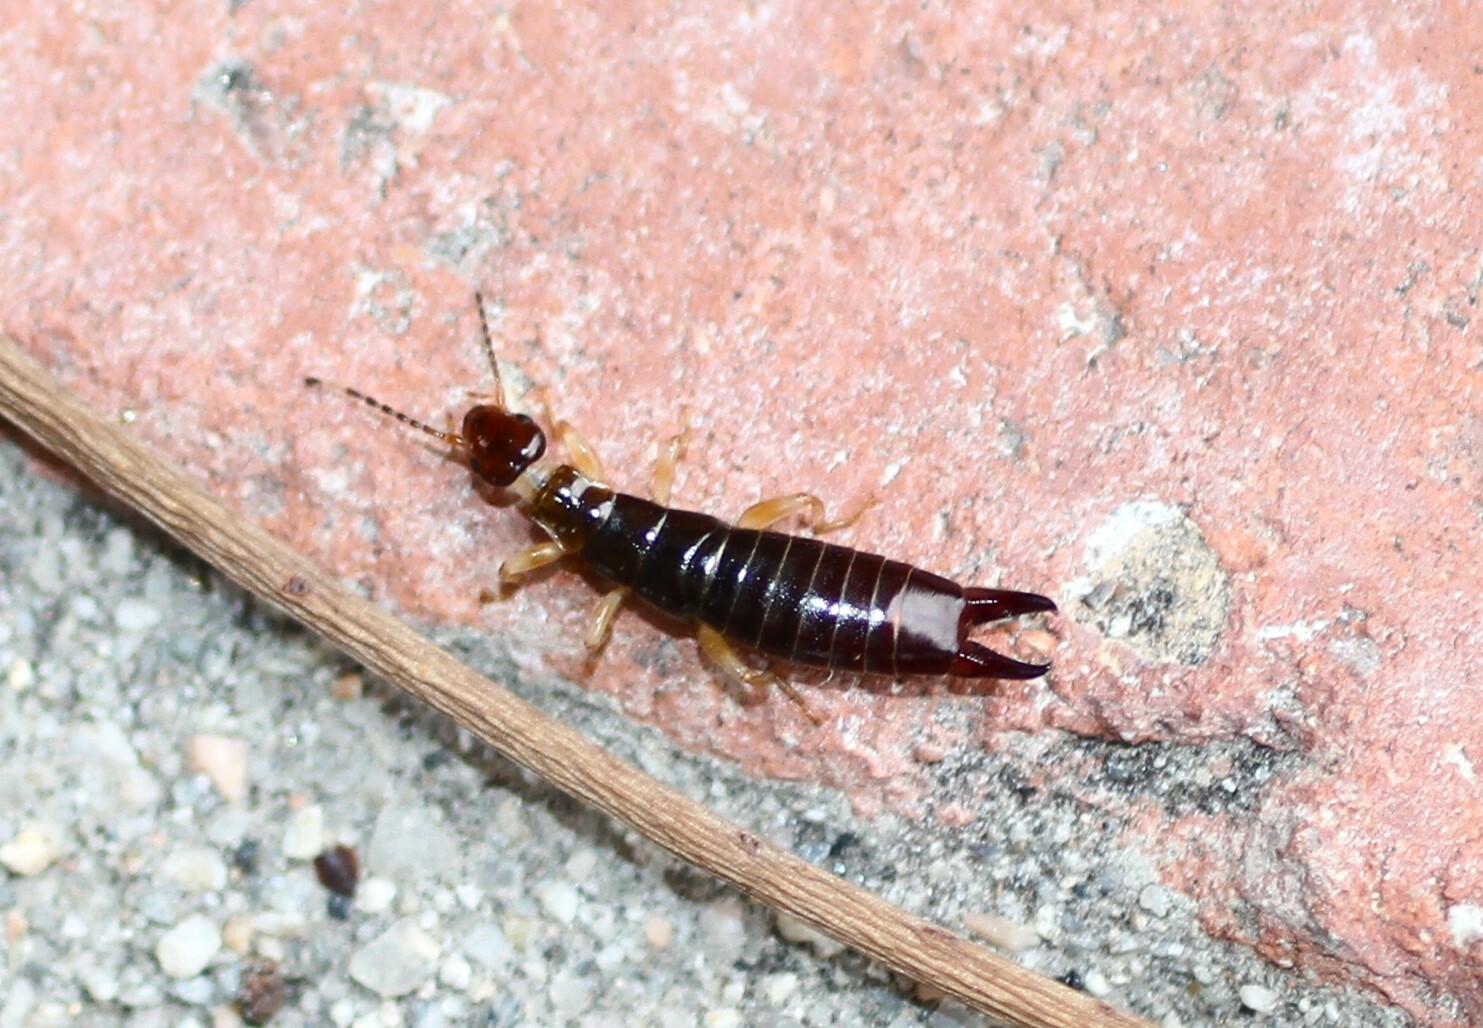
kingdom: Animalia
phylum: Arthropoda
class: Insecta
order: Dermaptera
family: Anisolabididae
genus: Euborellia
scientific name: Euborellia annulipes
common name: Ringlegged earwig
